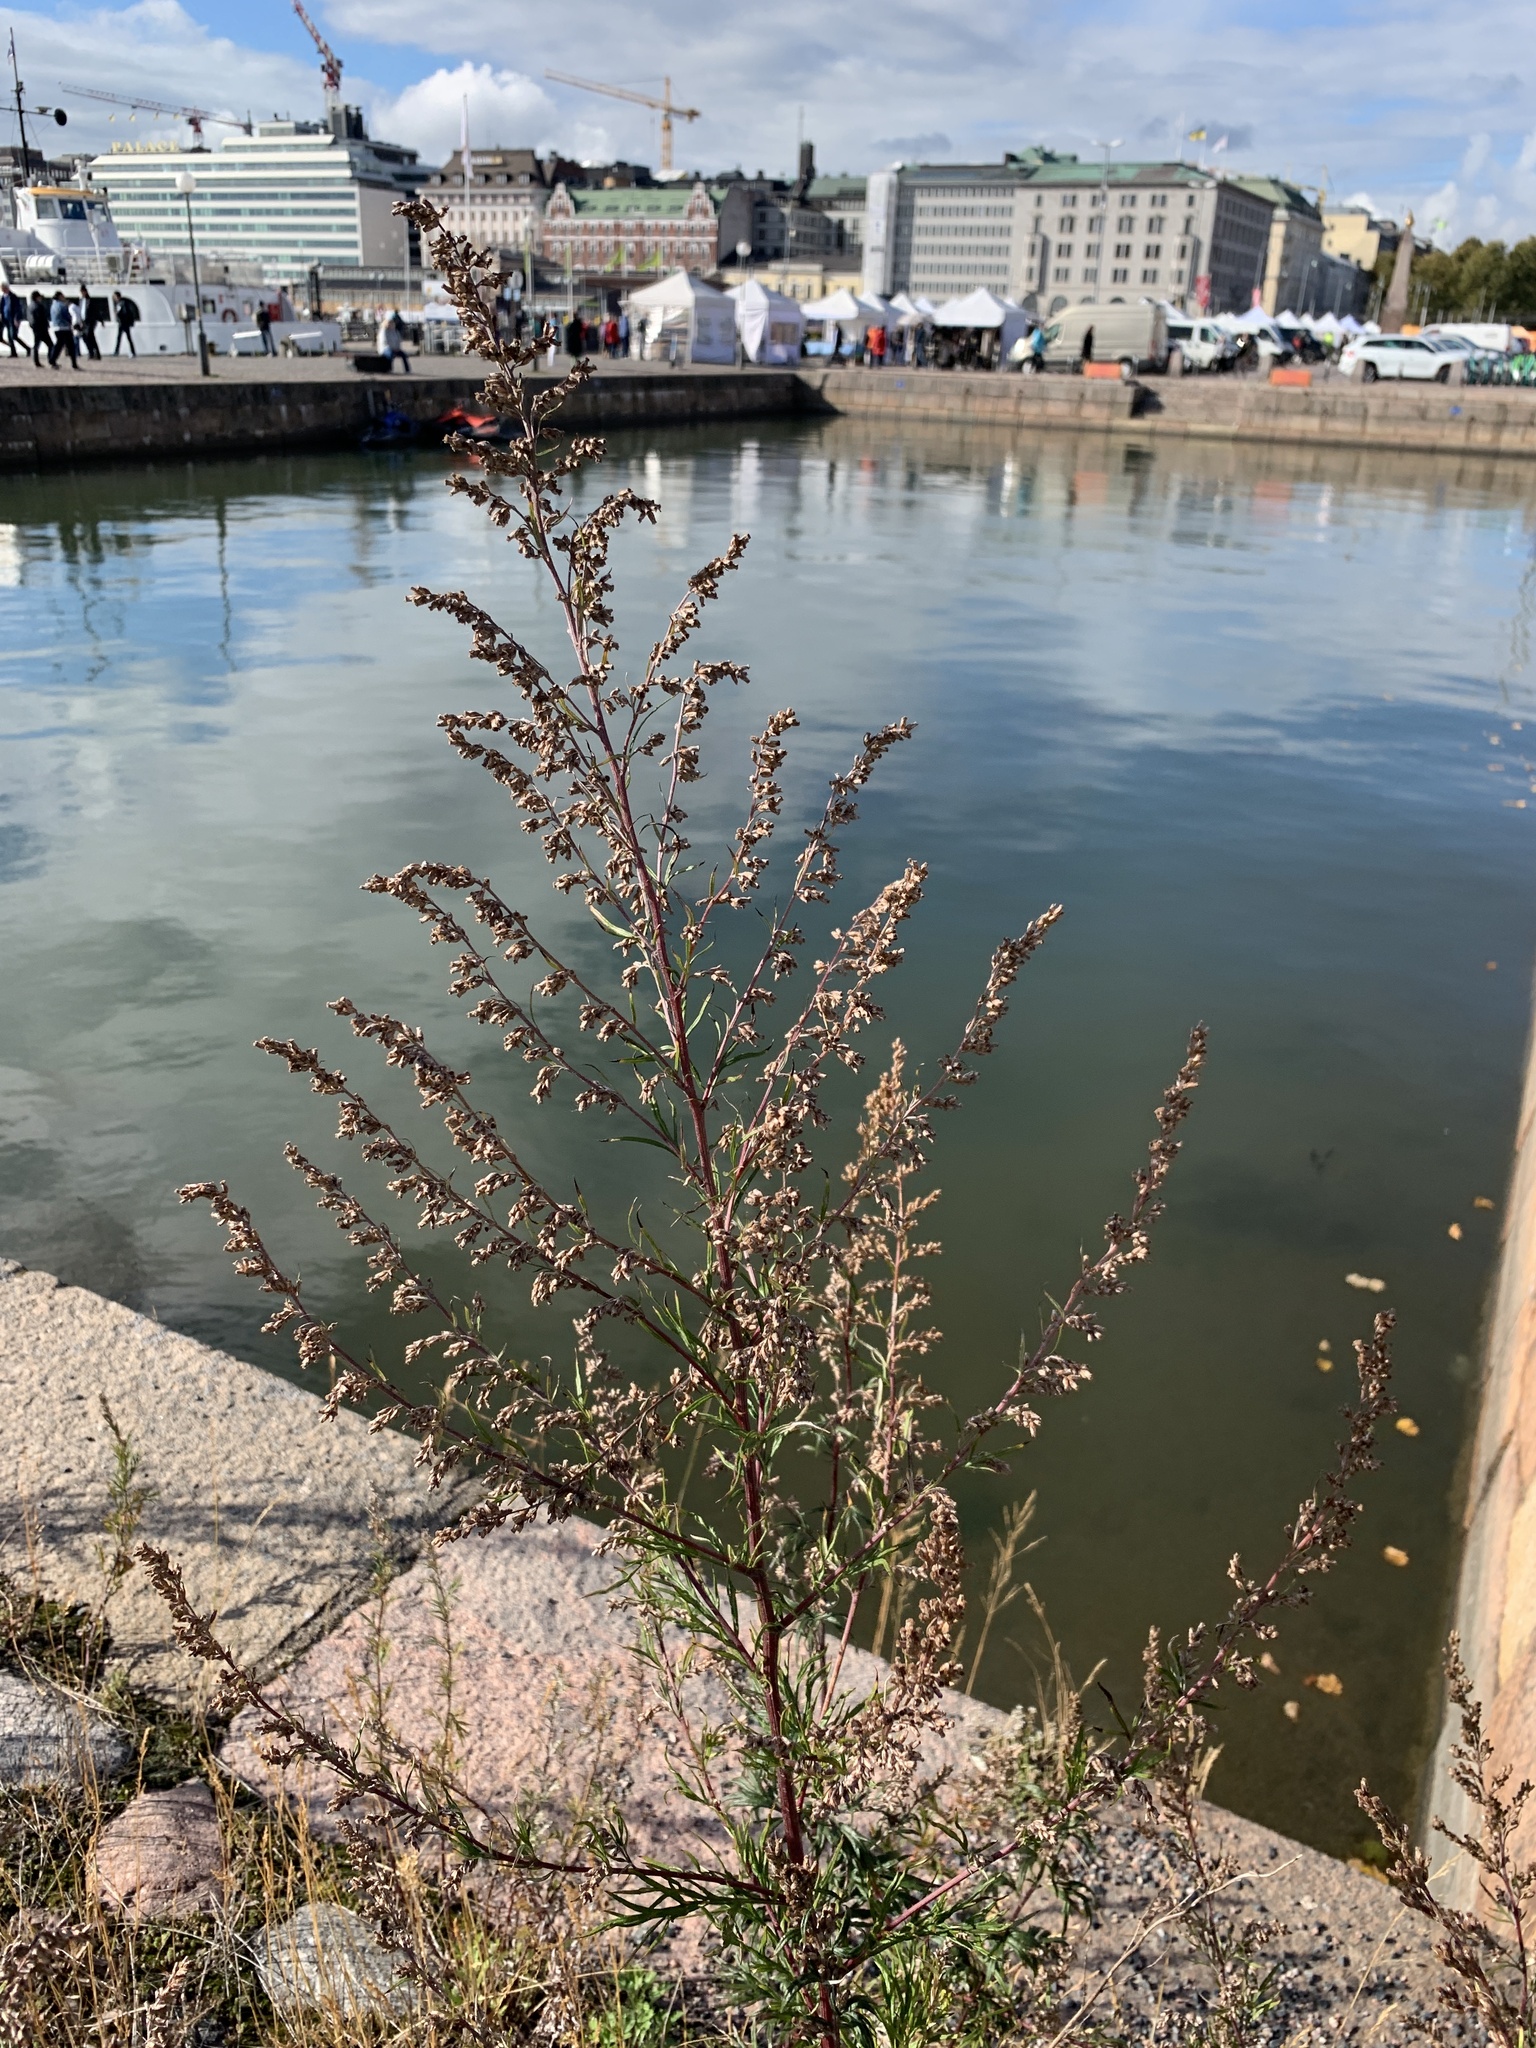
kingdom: Plantae
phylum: Tracheophyta
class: Magnoliopsida
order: Asterales
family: Asteraceae
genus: Artemisia
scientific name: Artemisia vulgaris
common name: Mugwort
